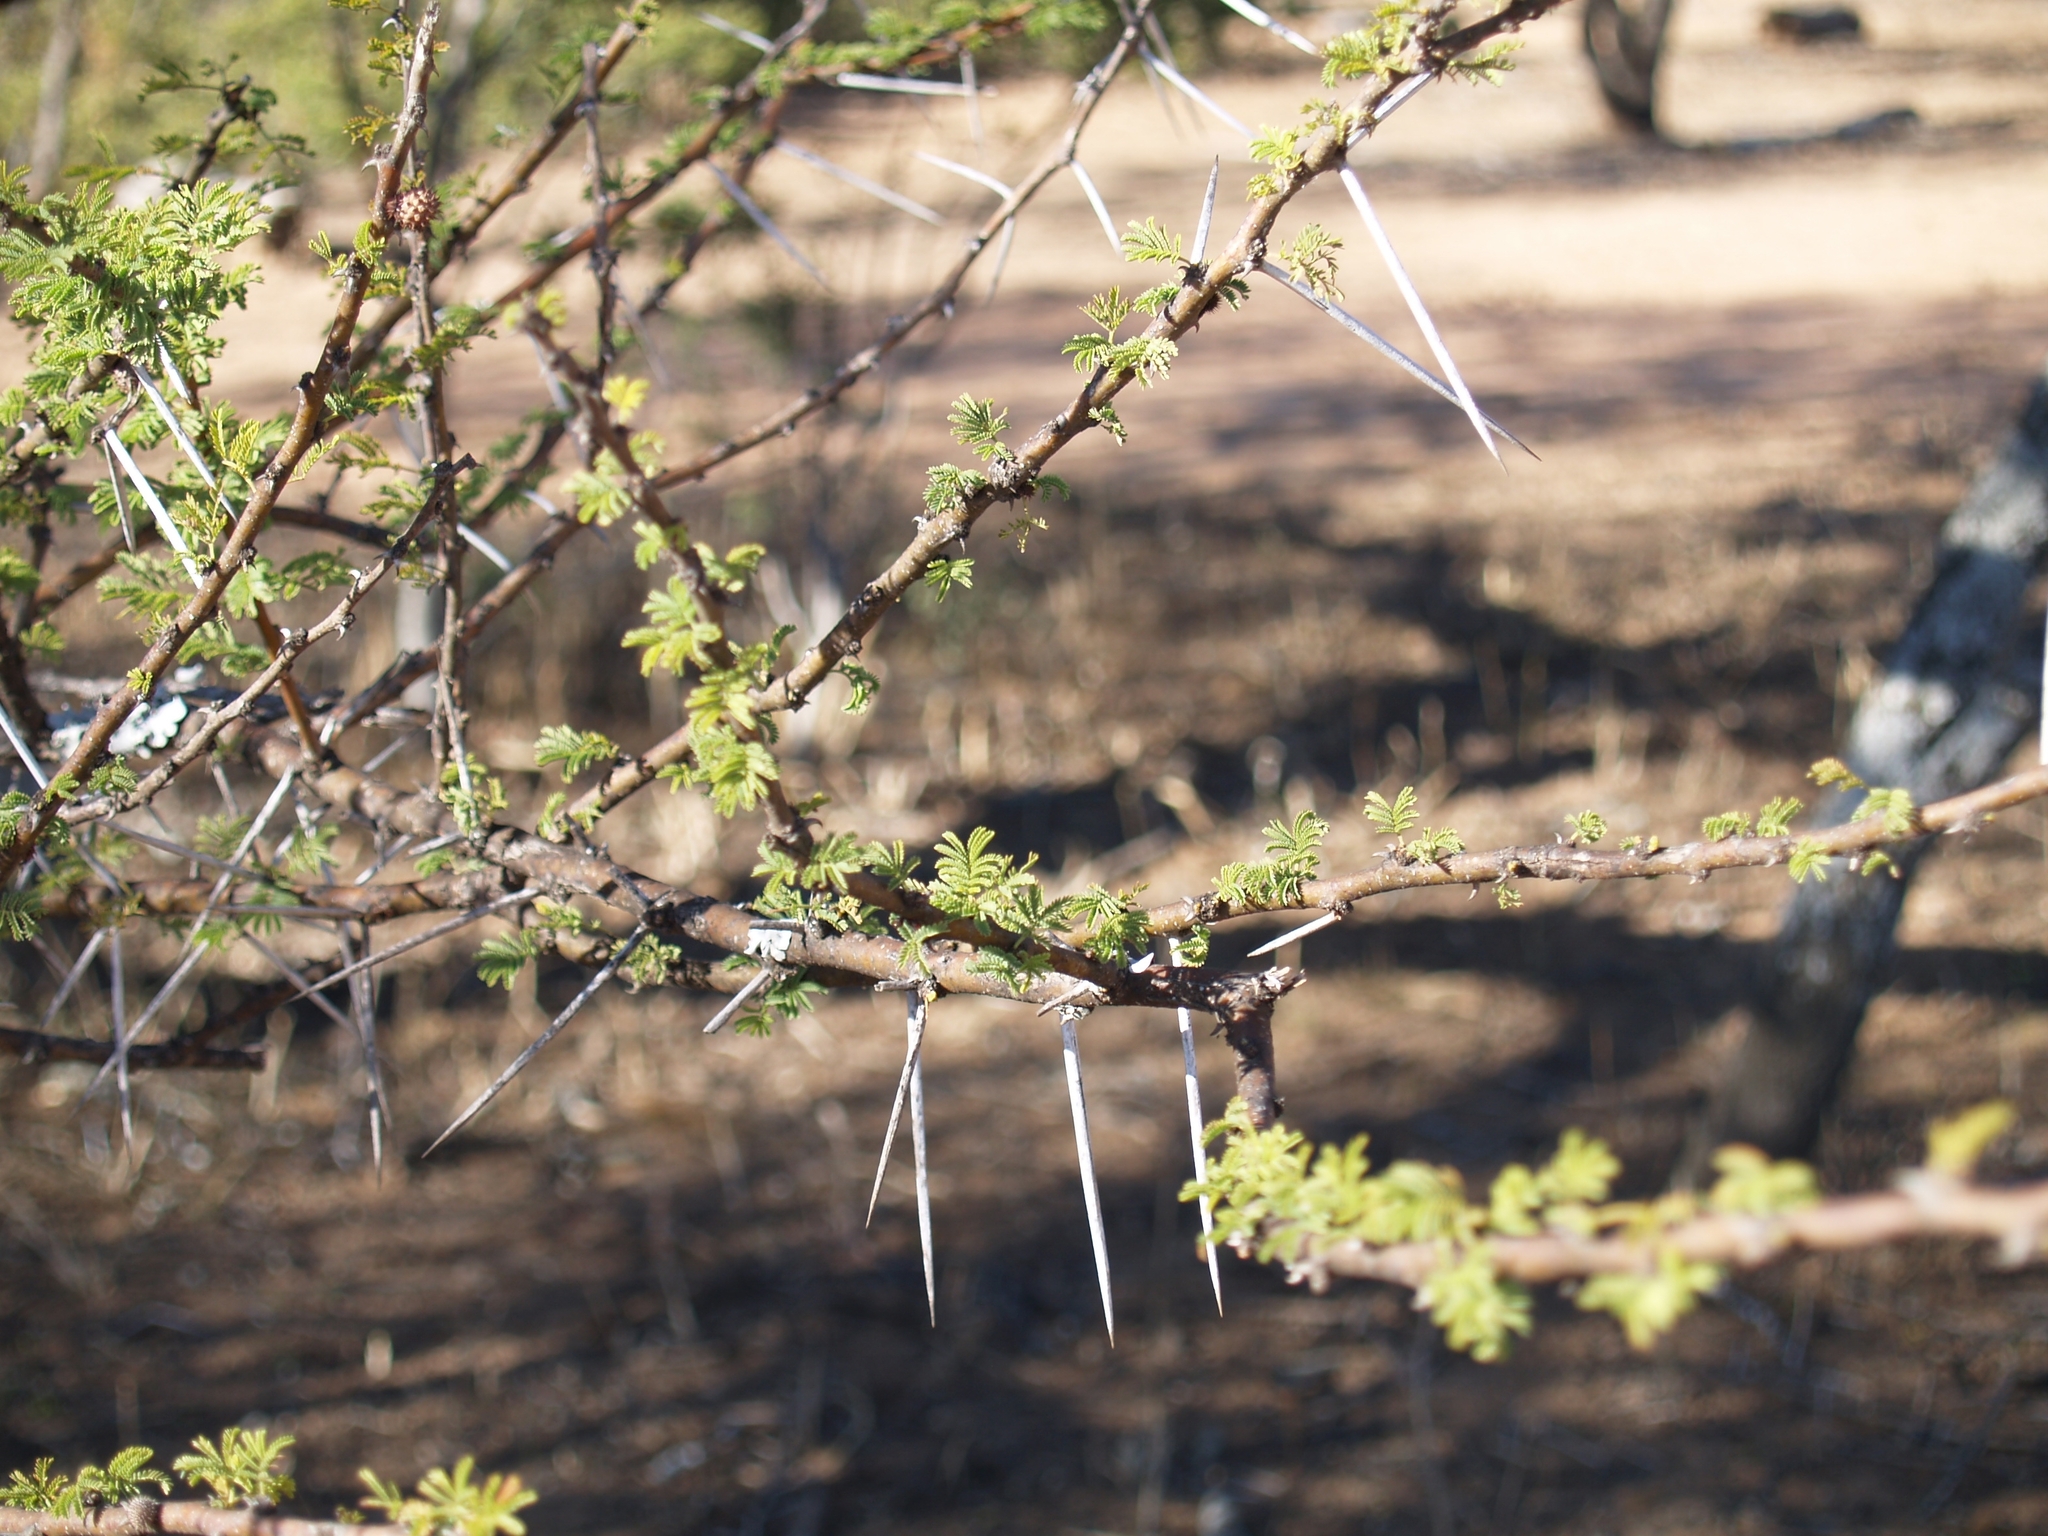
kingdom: Plantae
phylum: Tracheophyta
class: Magnoliopsida
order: Fabales
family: Fabaceae
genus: Vachellia
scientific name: Vachellia tortilis
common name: Umbrella thorn acacia
